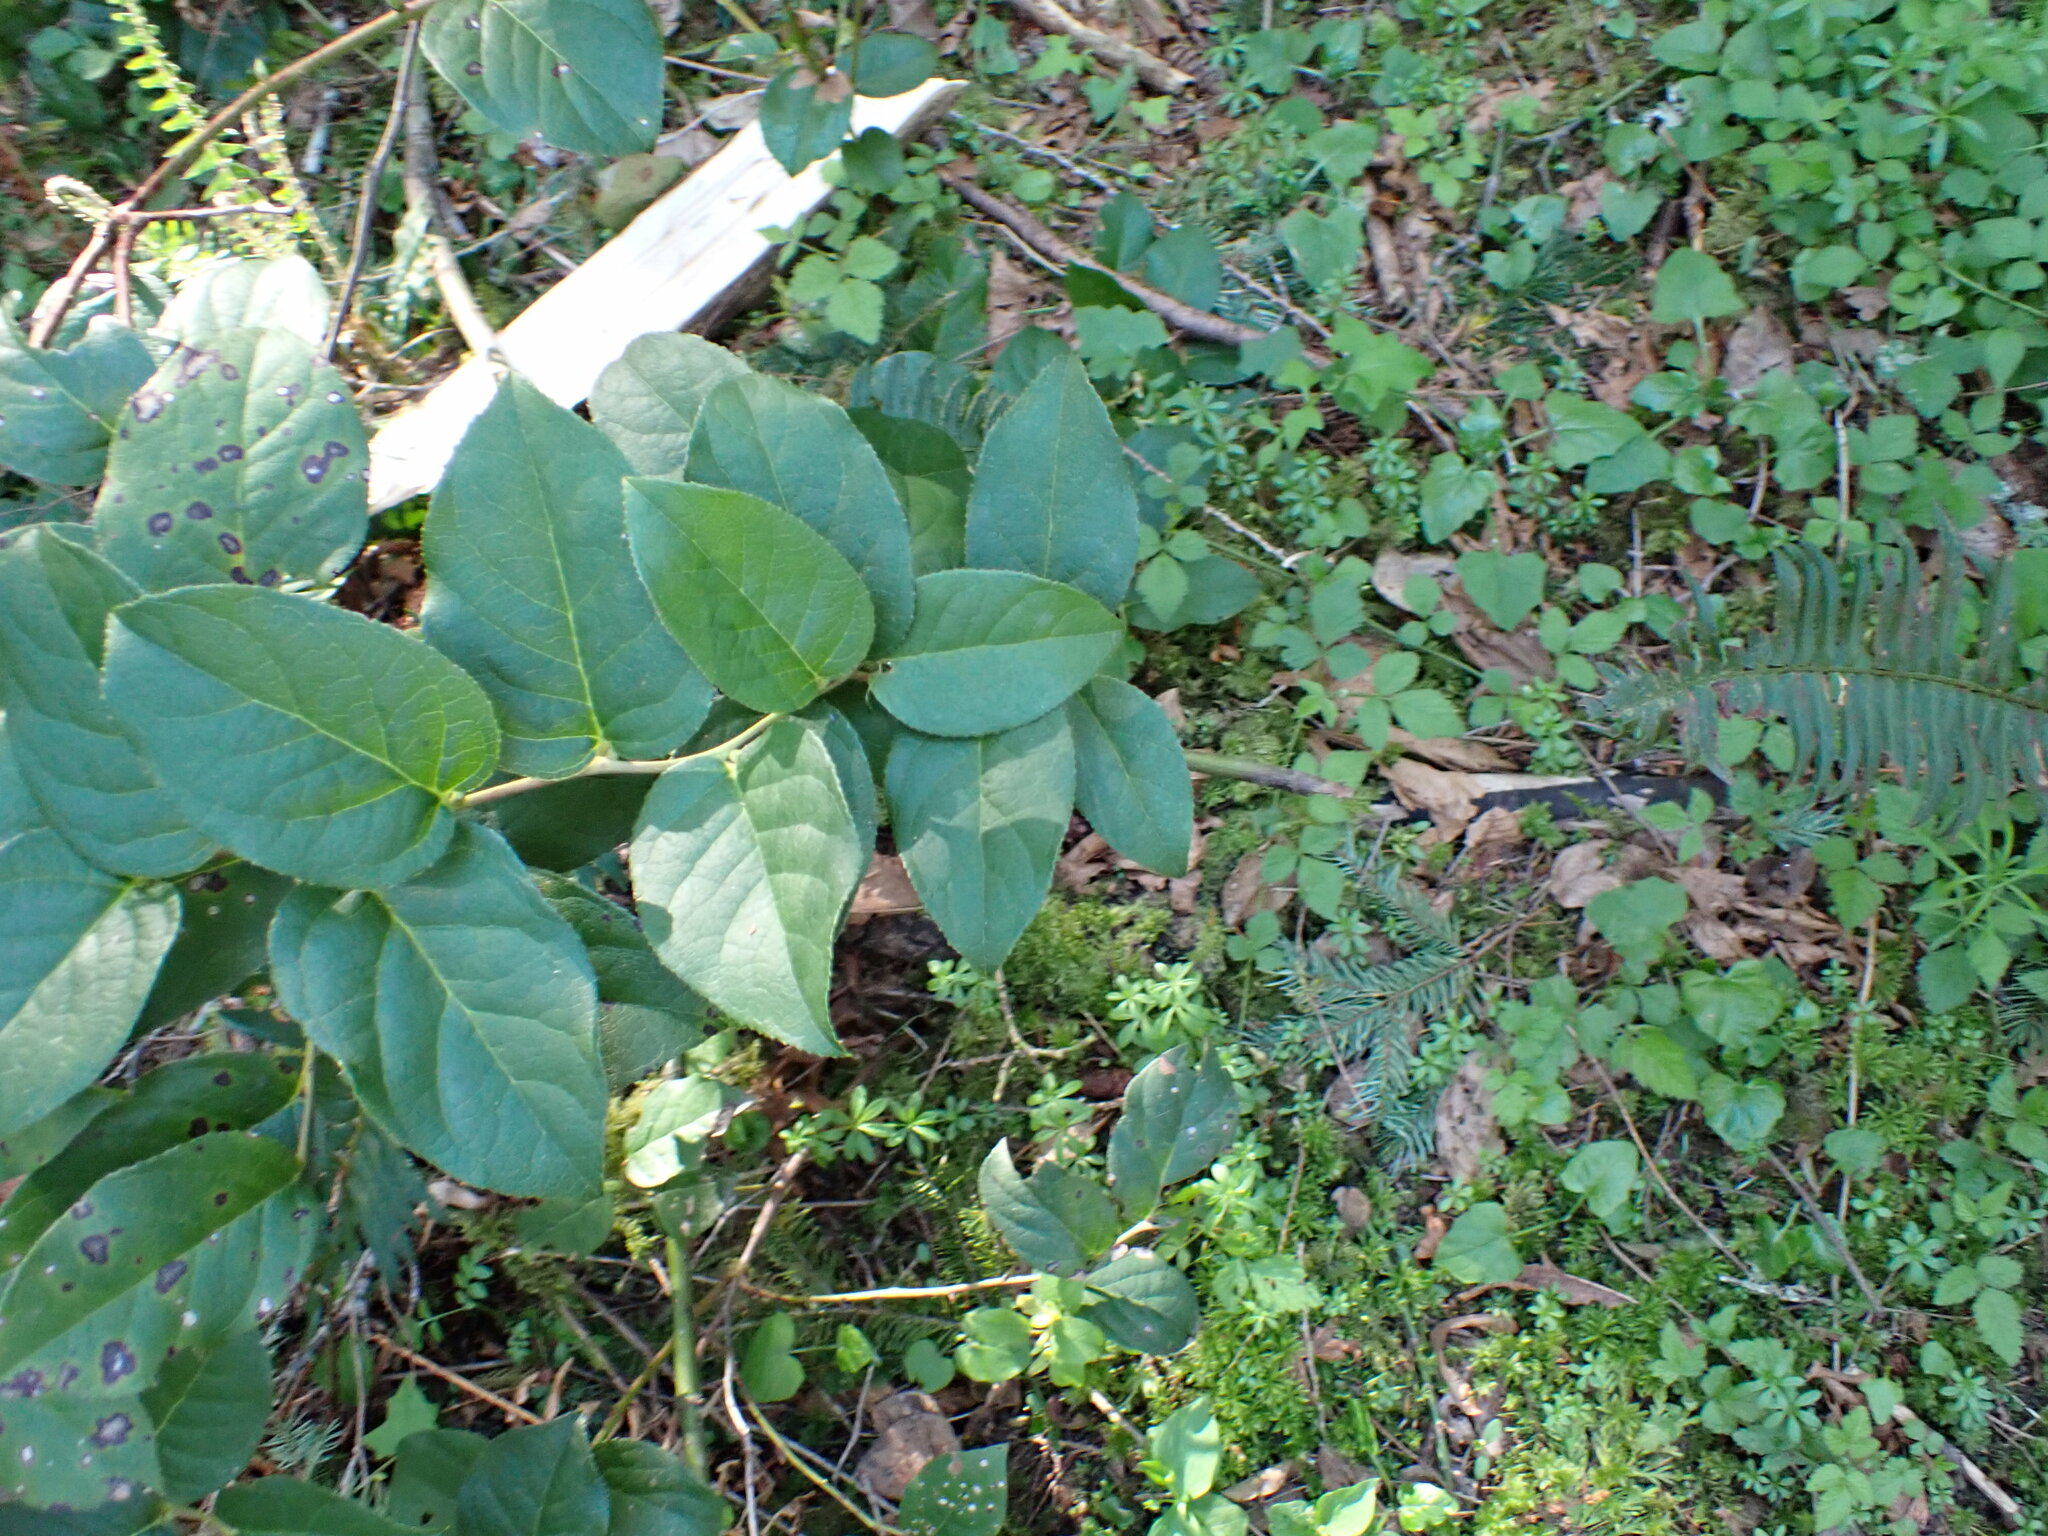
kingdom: Plantae
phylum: Tracheophyta
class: Magnoliopsida
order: Ericales
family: Ericaceae
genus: Gaultheria
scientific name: Gaultheria shallon
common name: Shallon
